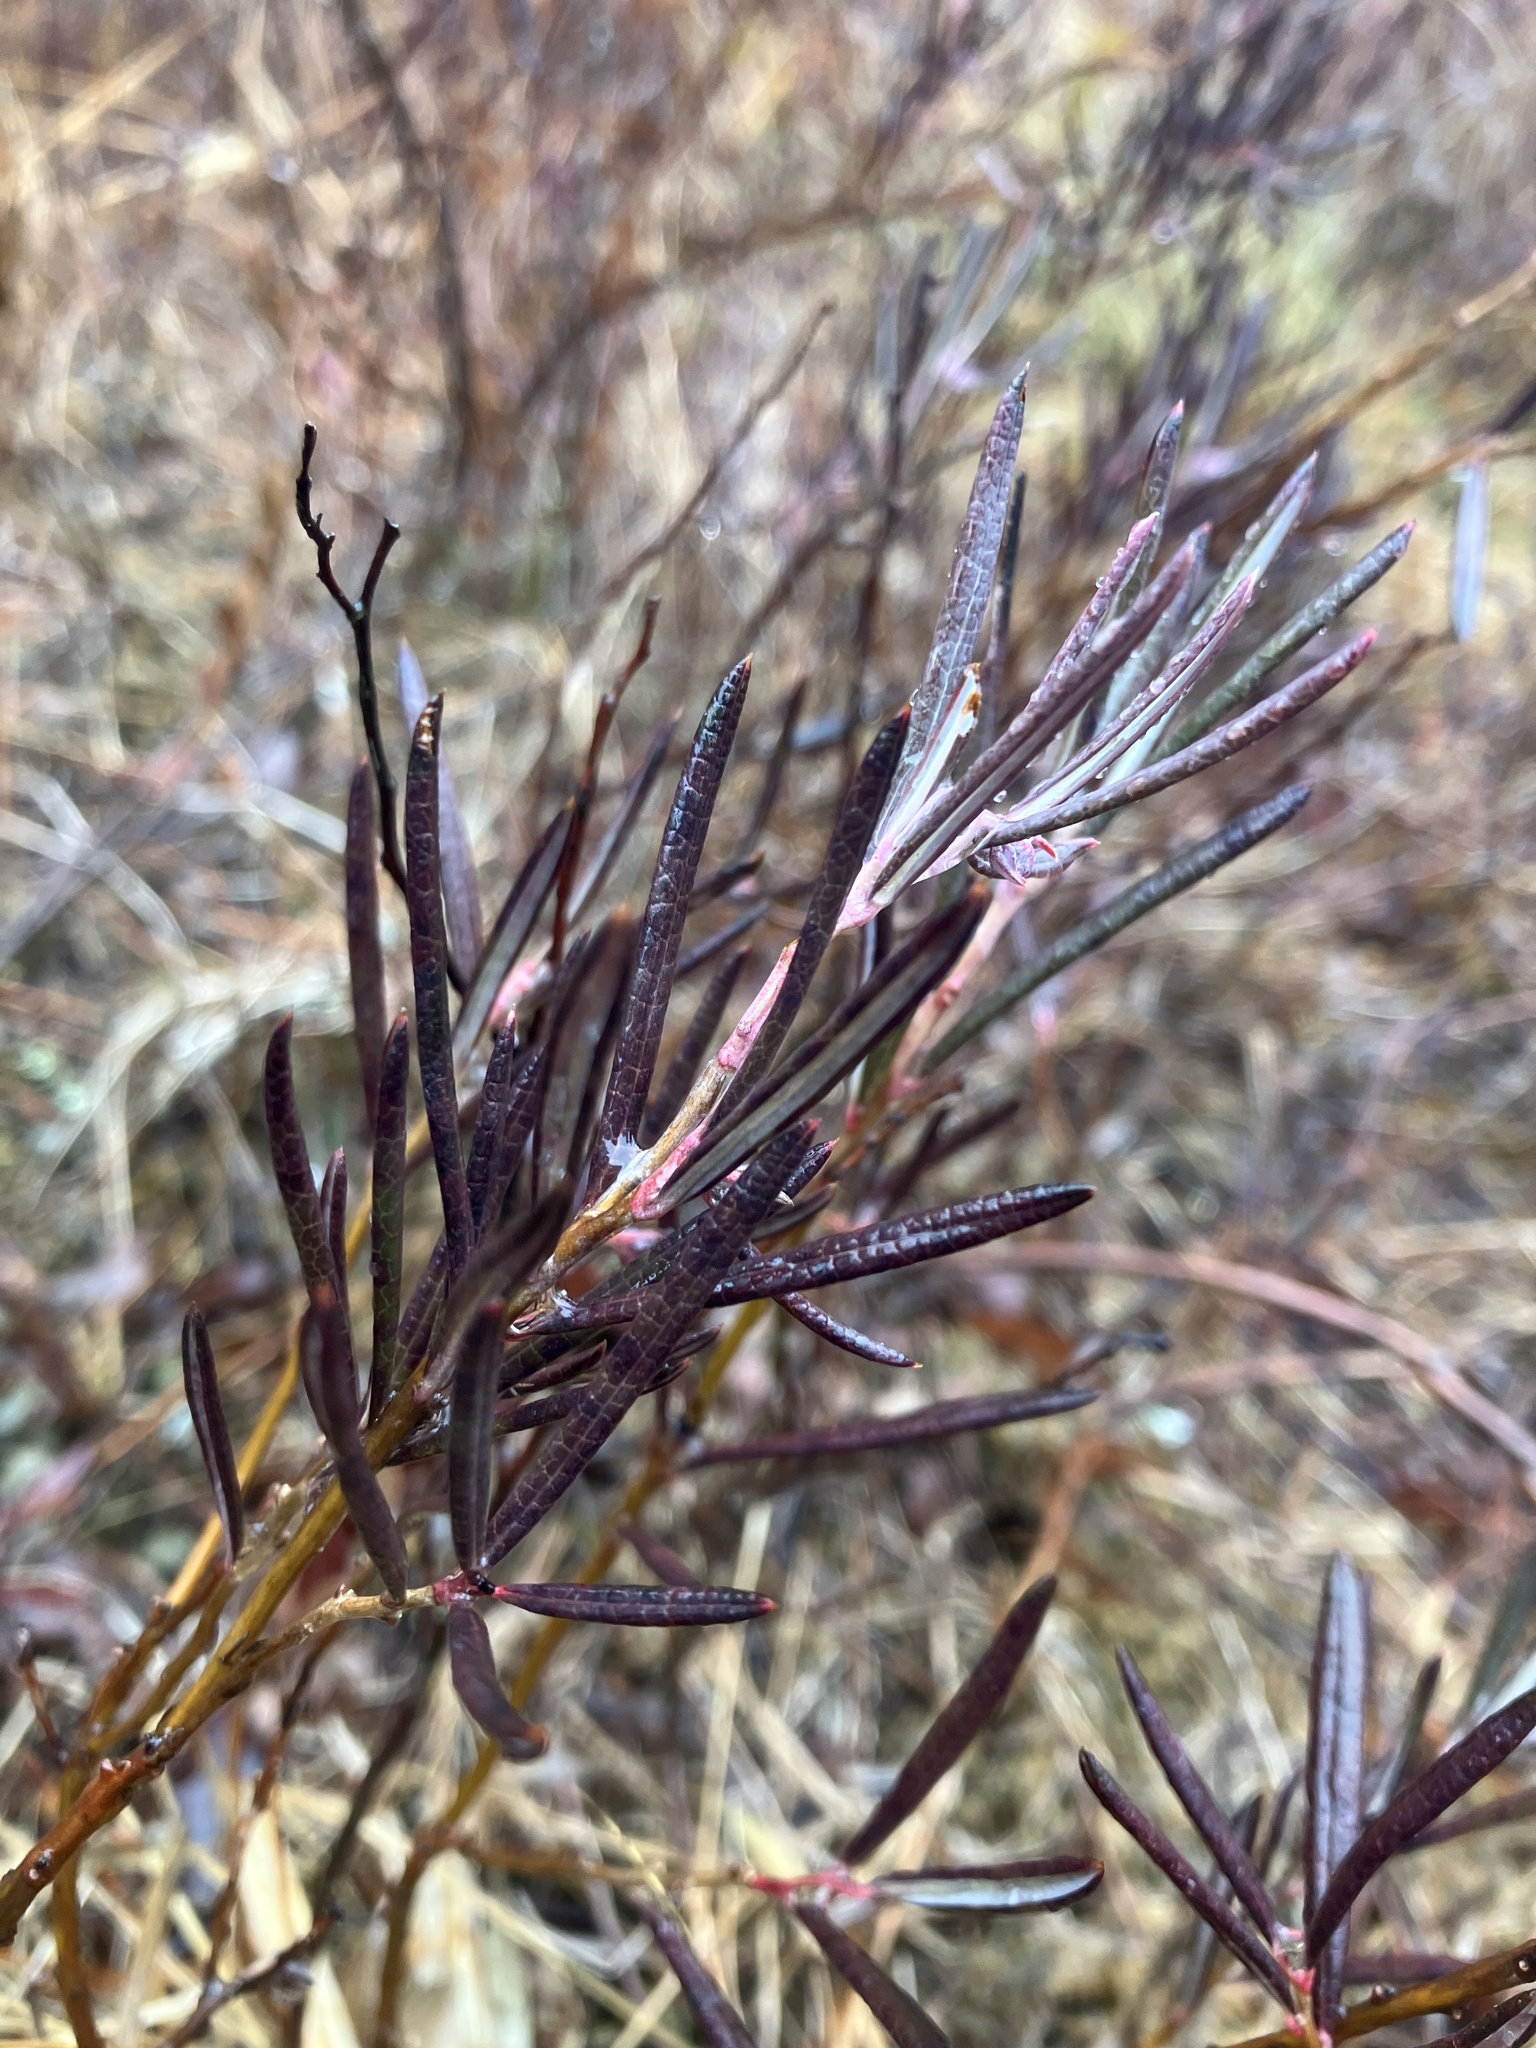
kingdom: Plantae
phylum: Tracheophyta
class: Magnoliopsida
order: Ericales
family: Ericaceae
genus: Andromeda
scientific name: Andromeda polifolia
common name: Bog-rosemary
